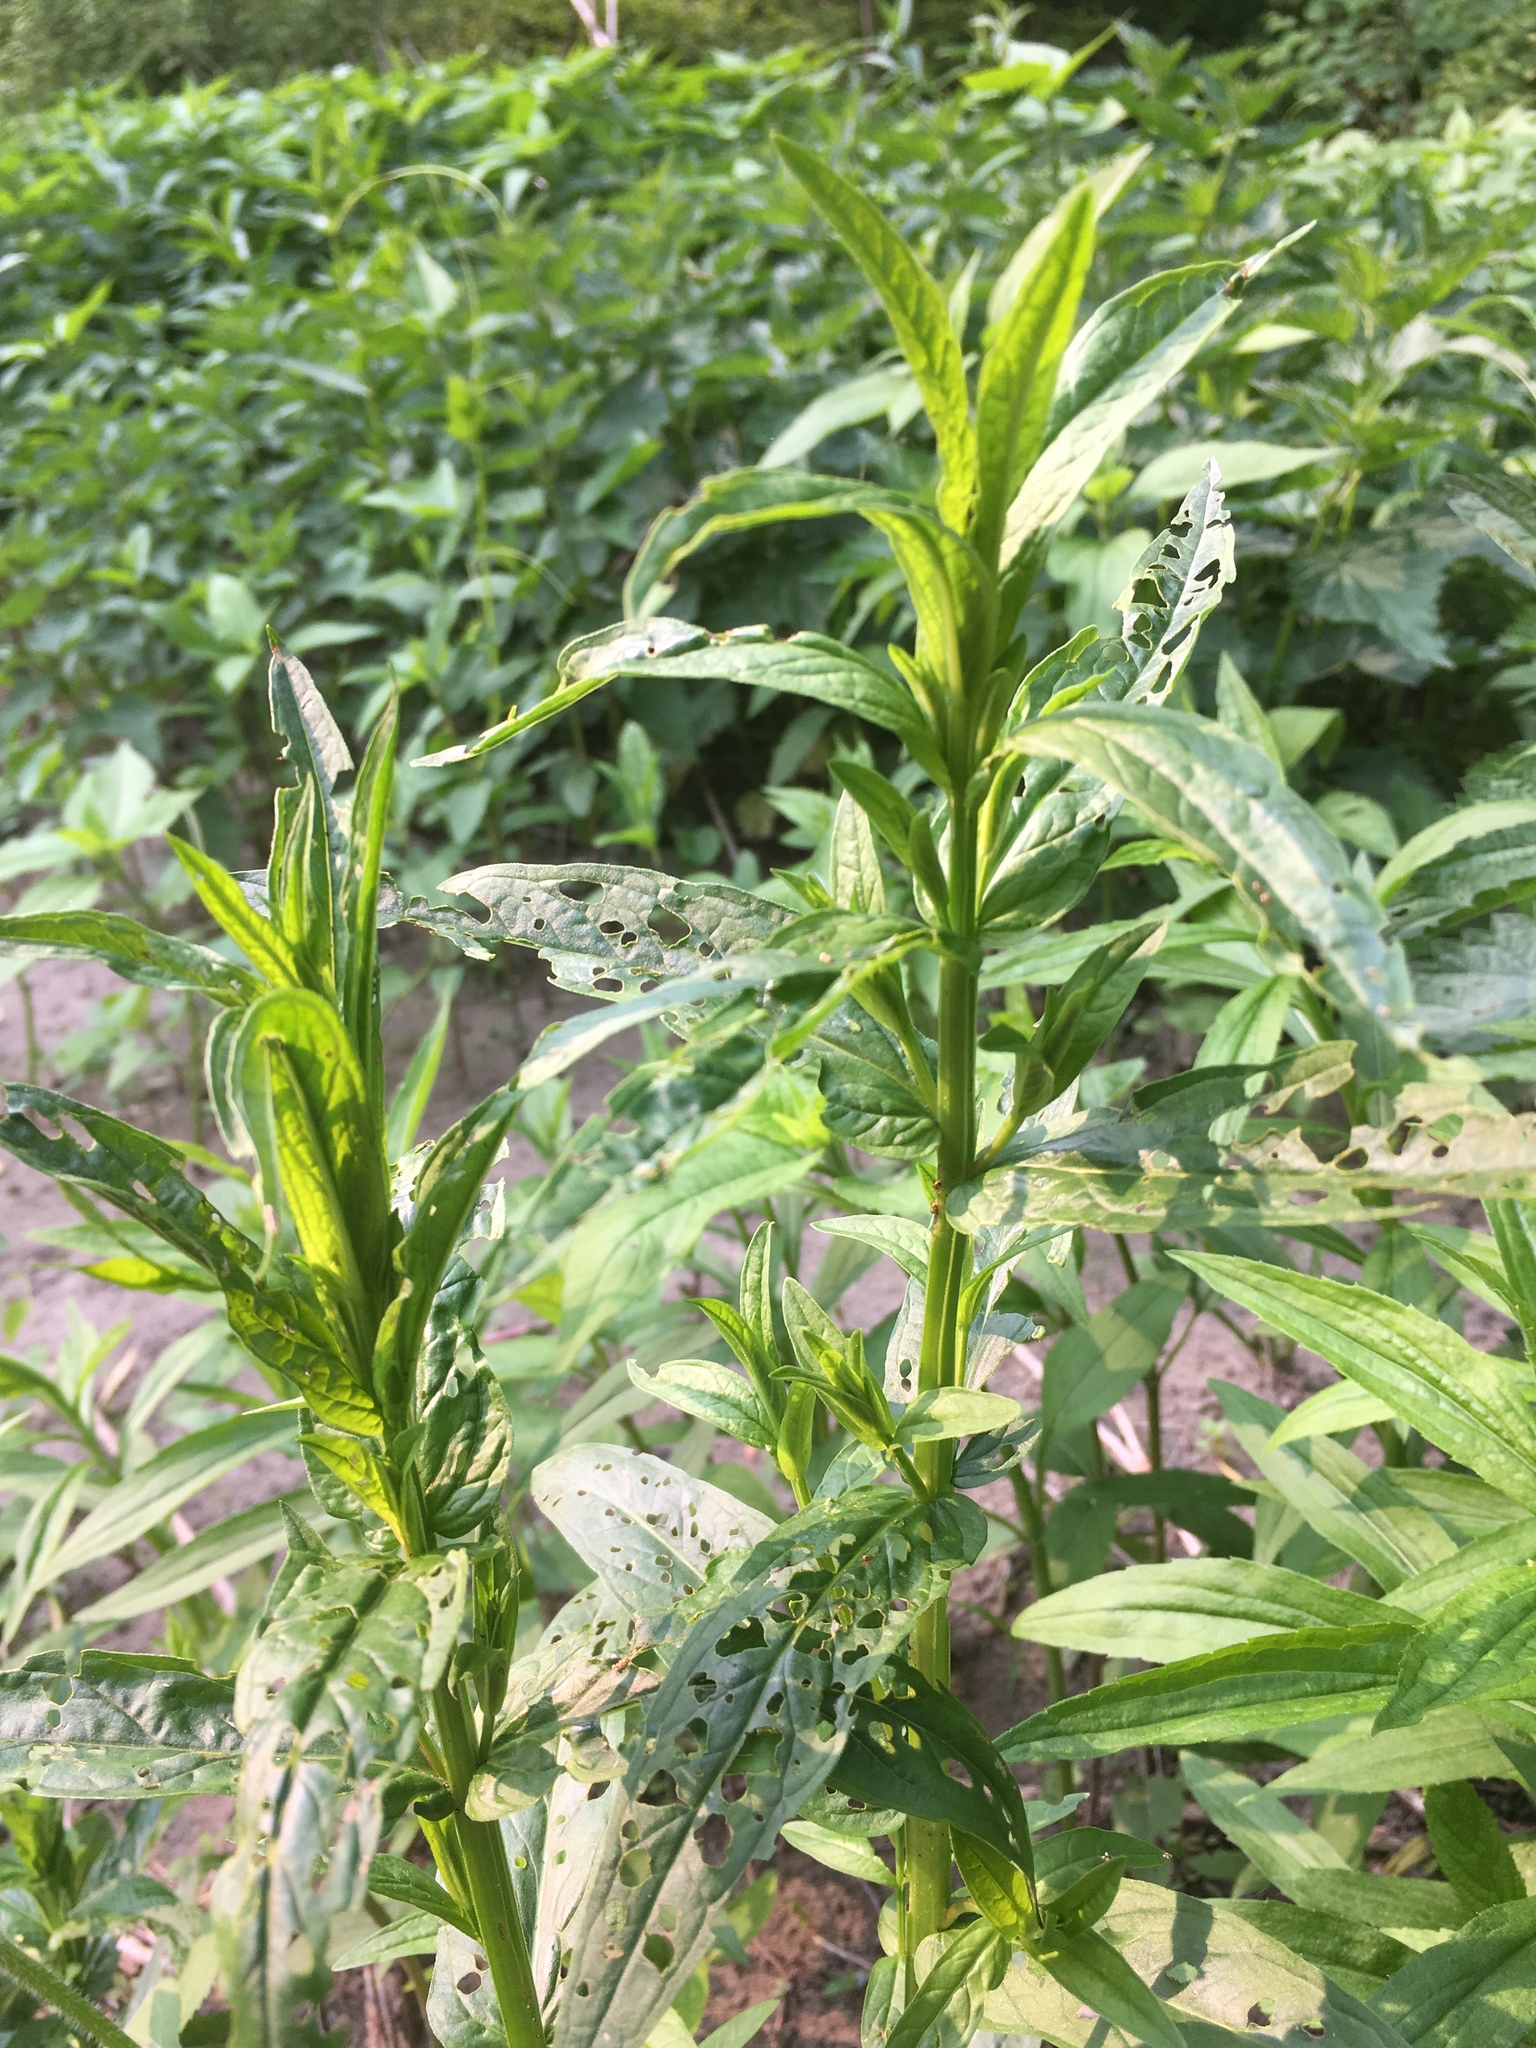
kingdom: Plantae
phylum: Tracheophyta
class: Magnoliopsida
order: Myrtales
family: Lythraceae
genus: Lythrum
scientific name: Lythrum salicaria
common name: Purple loosestrife
